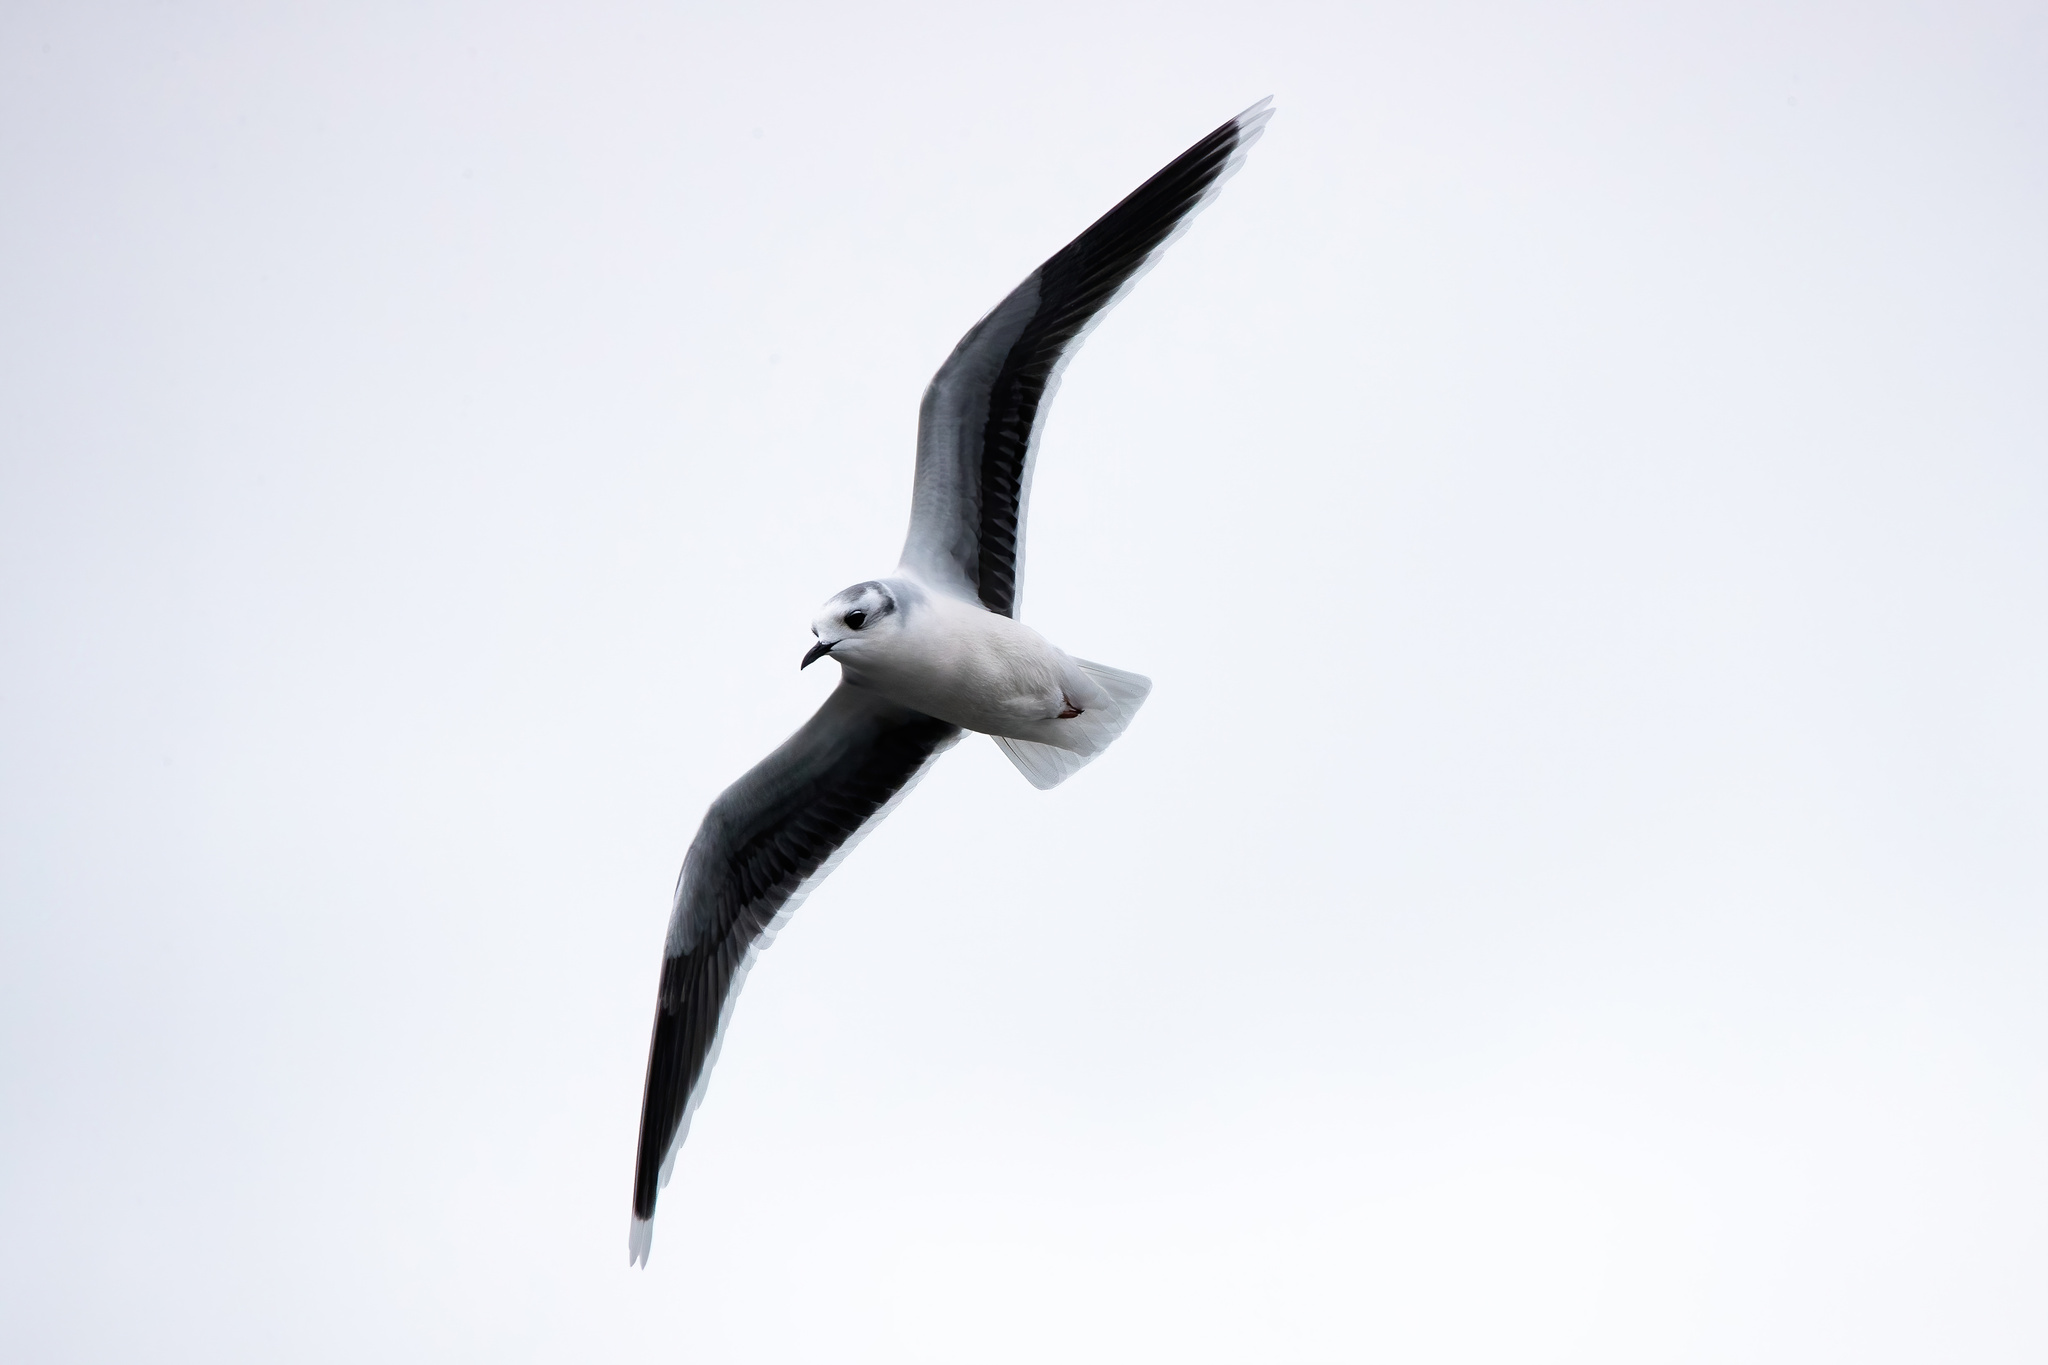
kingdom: Animalia
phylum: Chordata
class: Aves
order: Charadriiformes
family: Laridae
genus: Hydrocoloeus
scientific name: Hydrocoloeus minutus
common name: Little gull
